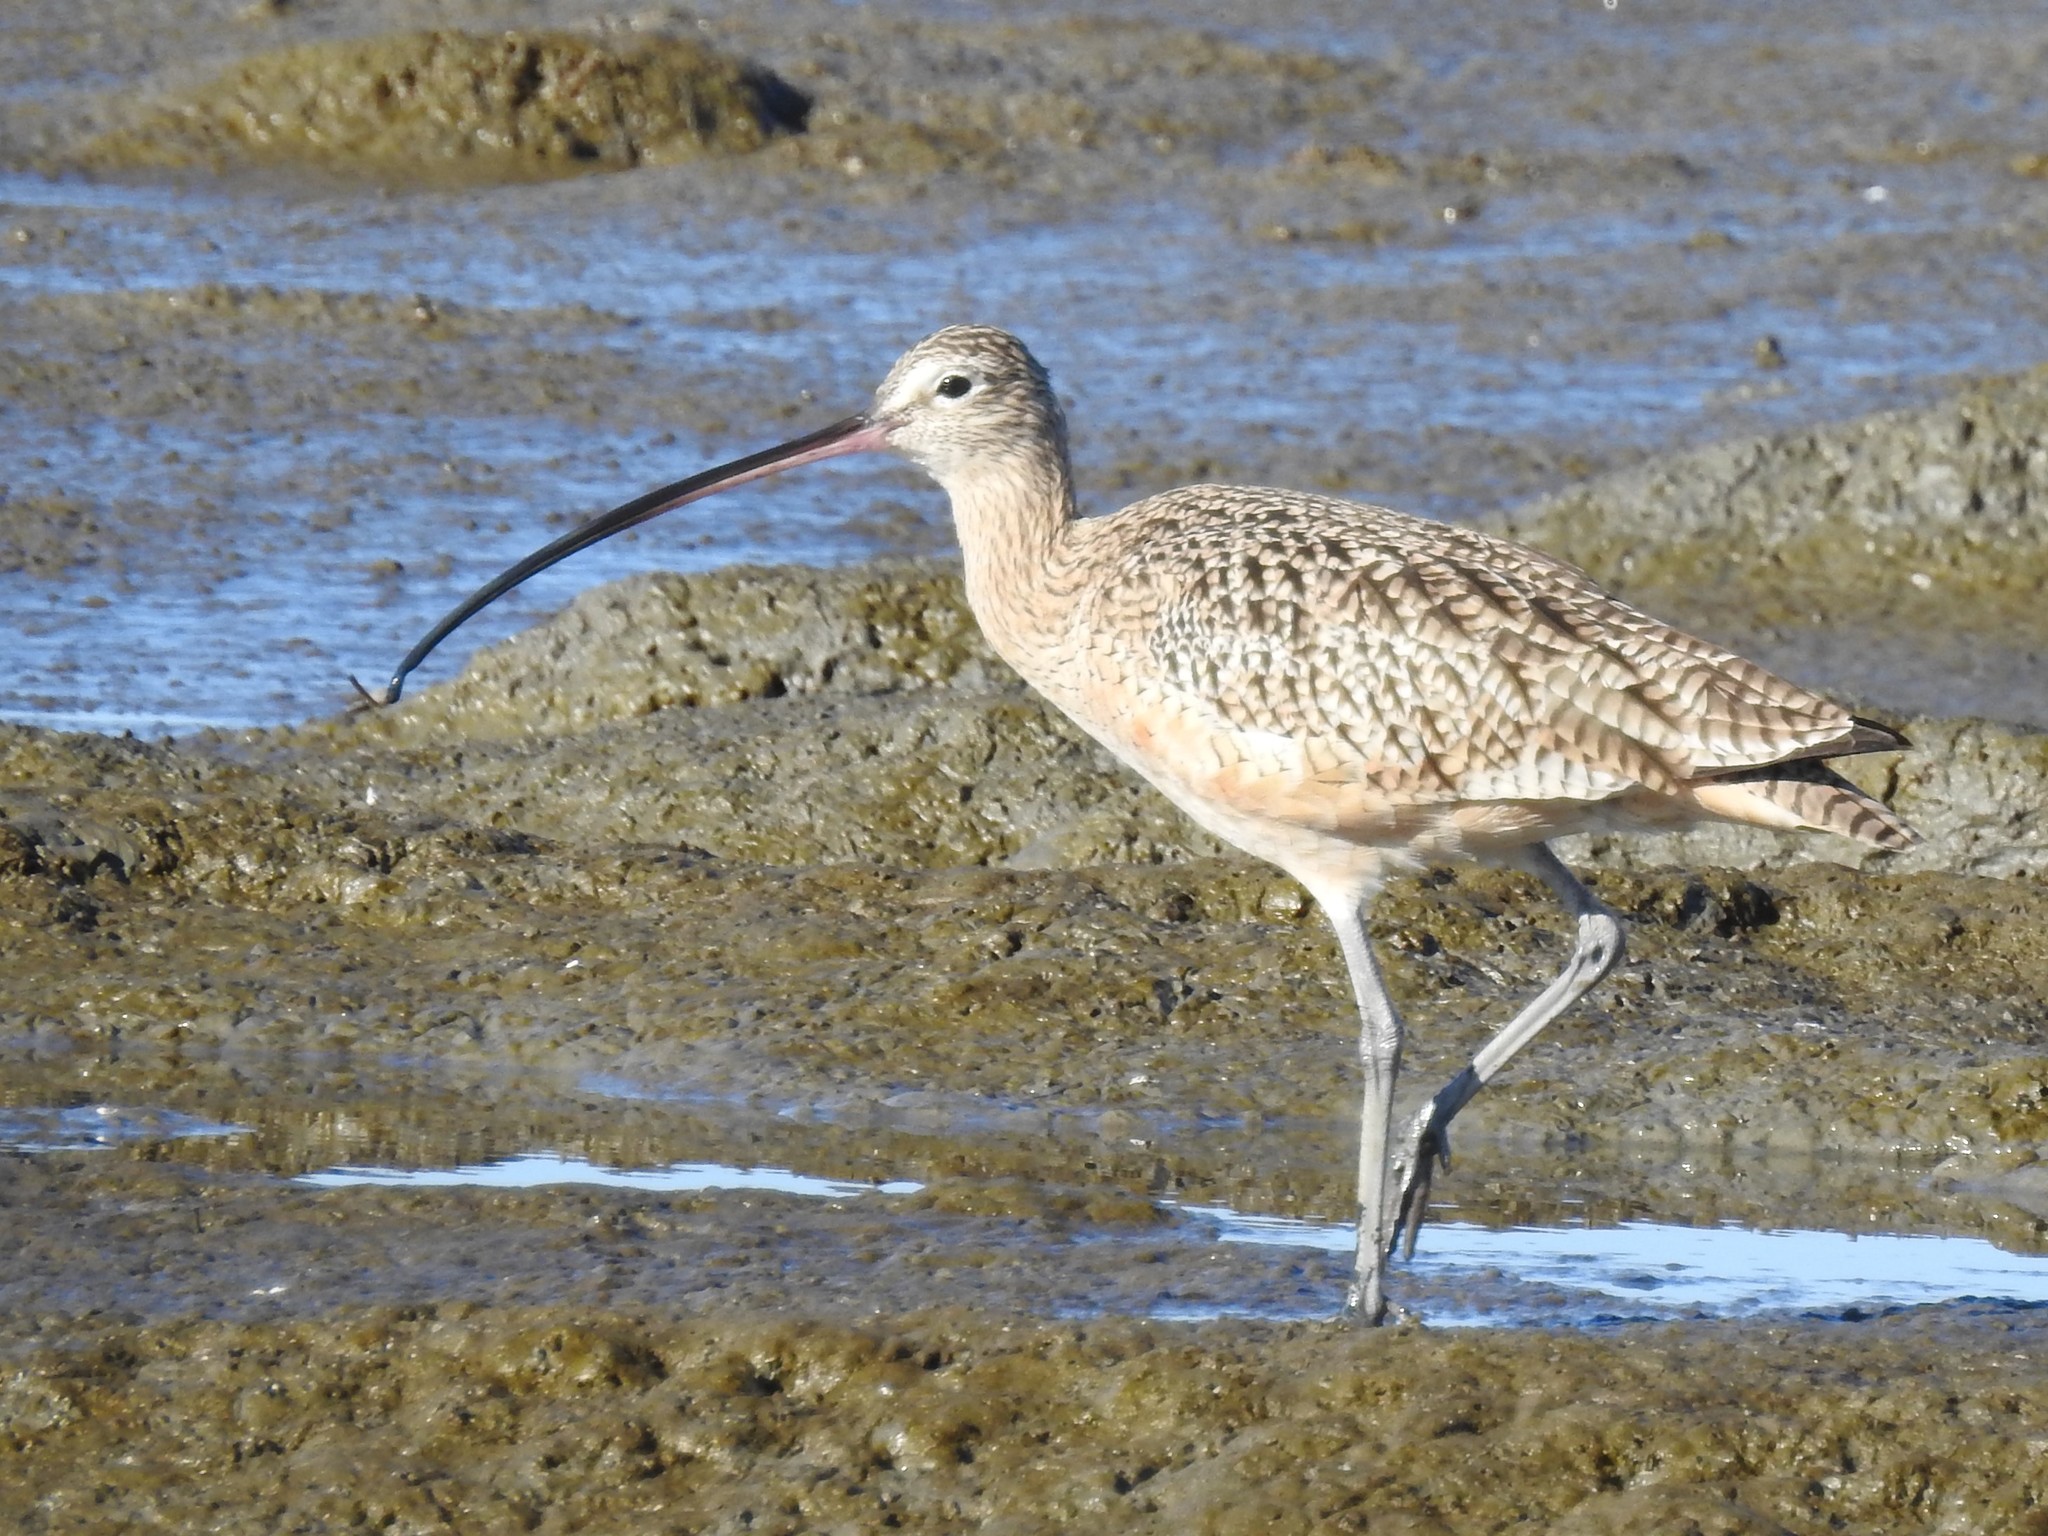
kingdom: Animalia
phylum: Chordata
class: Aves
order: Charadriiformes
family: Scolopacidae
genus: Numenius
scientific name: Numenius americanus
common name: Long-billed curlew
